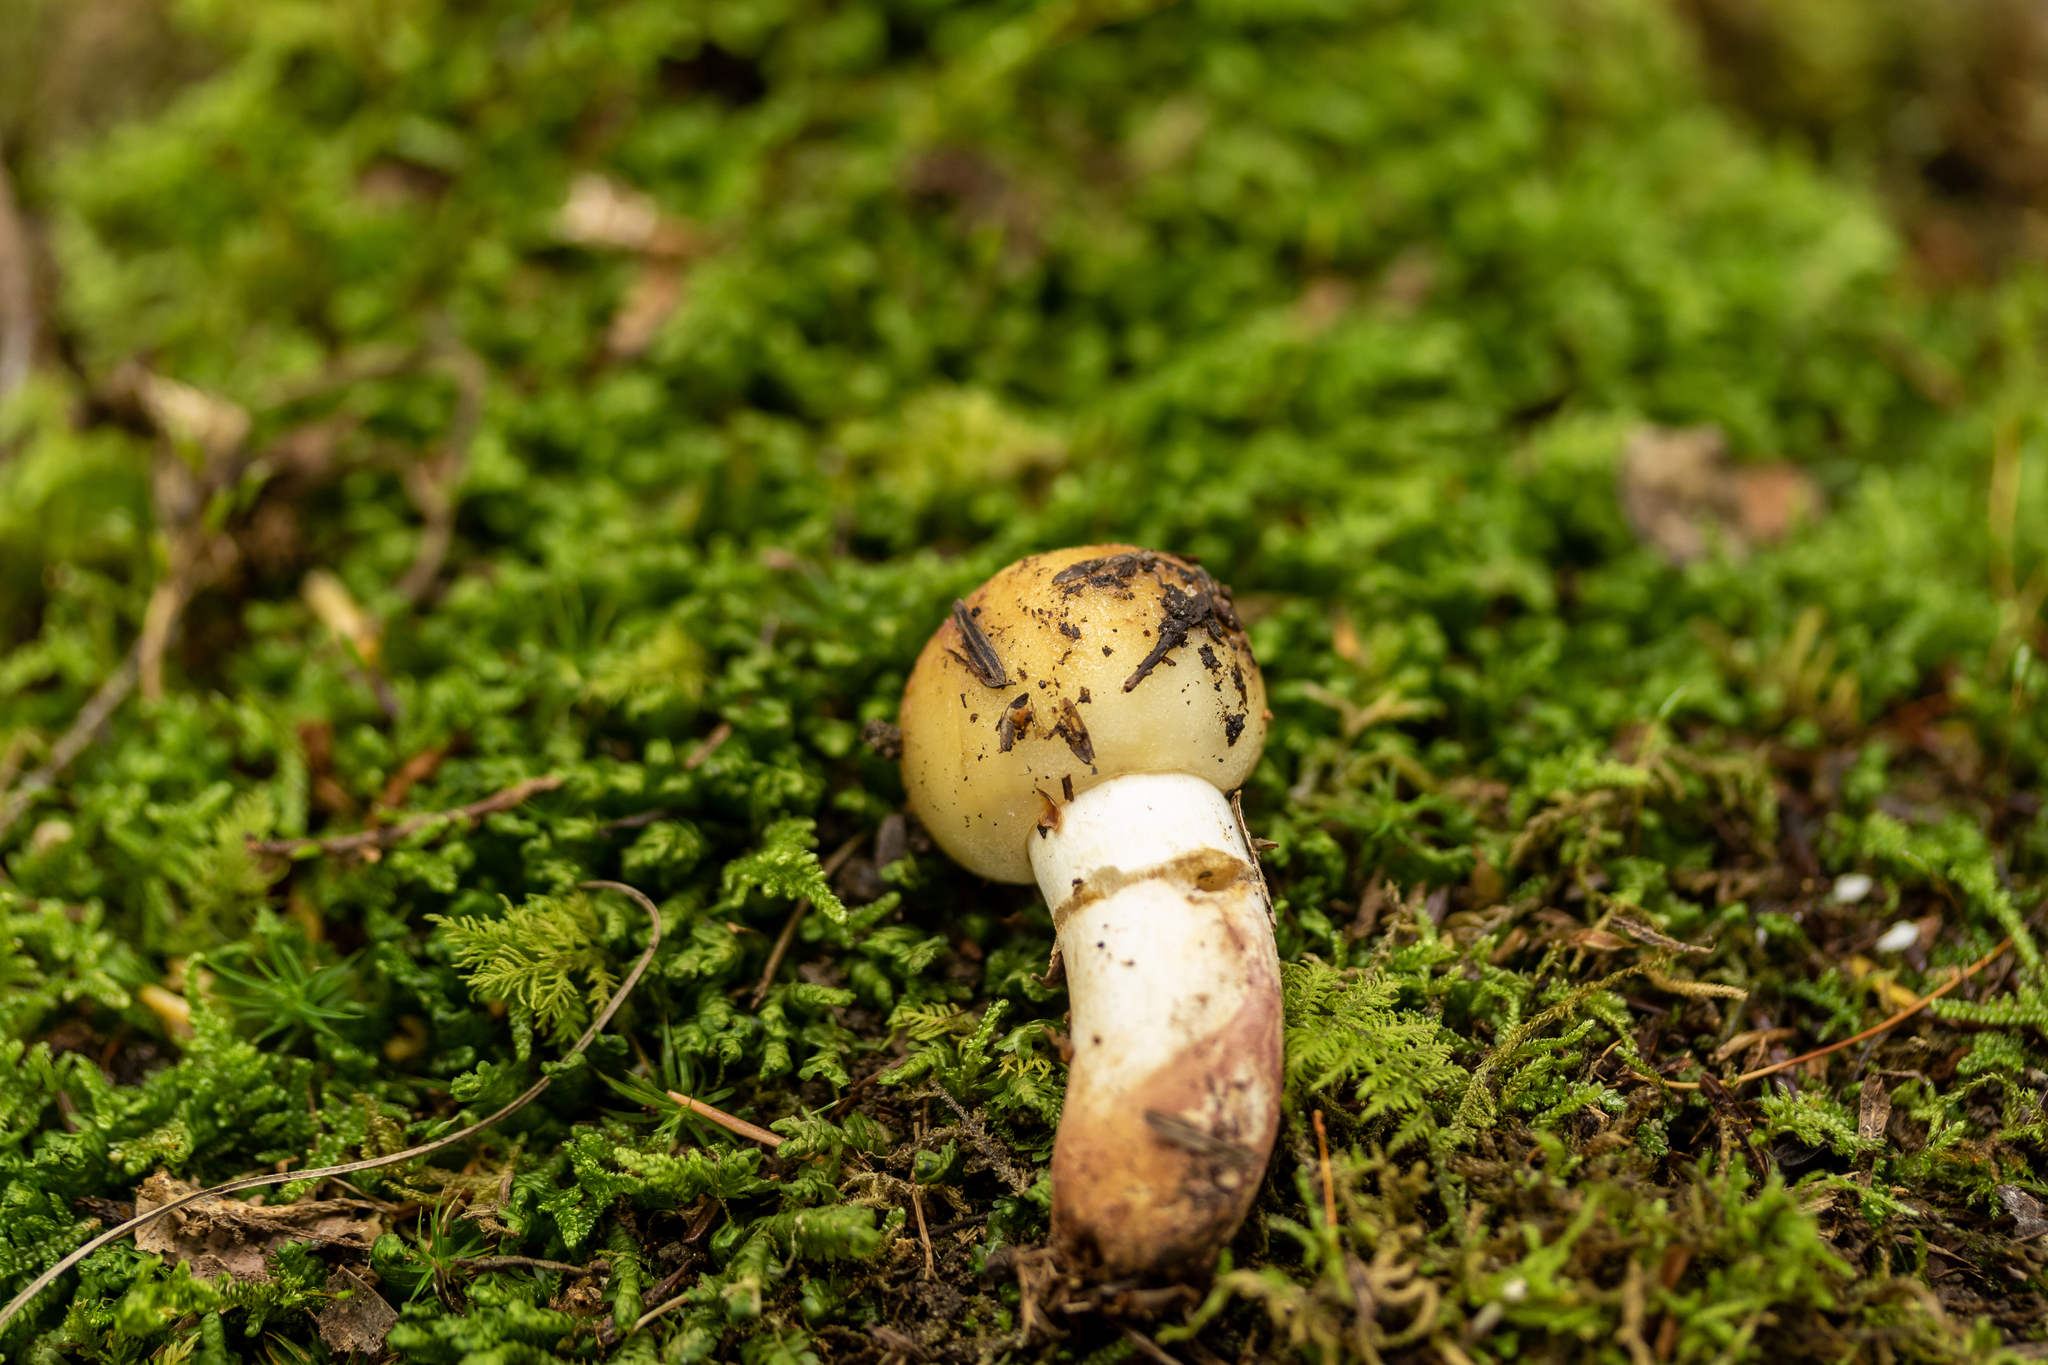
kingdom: Fungi
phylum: Basidiomycota
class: Agaricomycetes
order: Russulales
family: Russulaceae
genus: Russula
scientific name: Russula granulata
